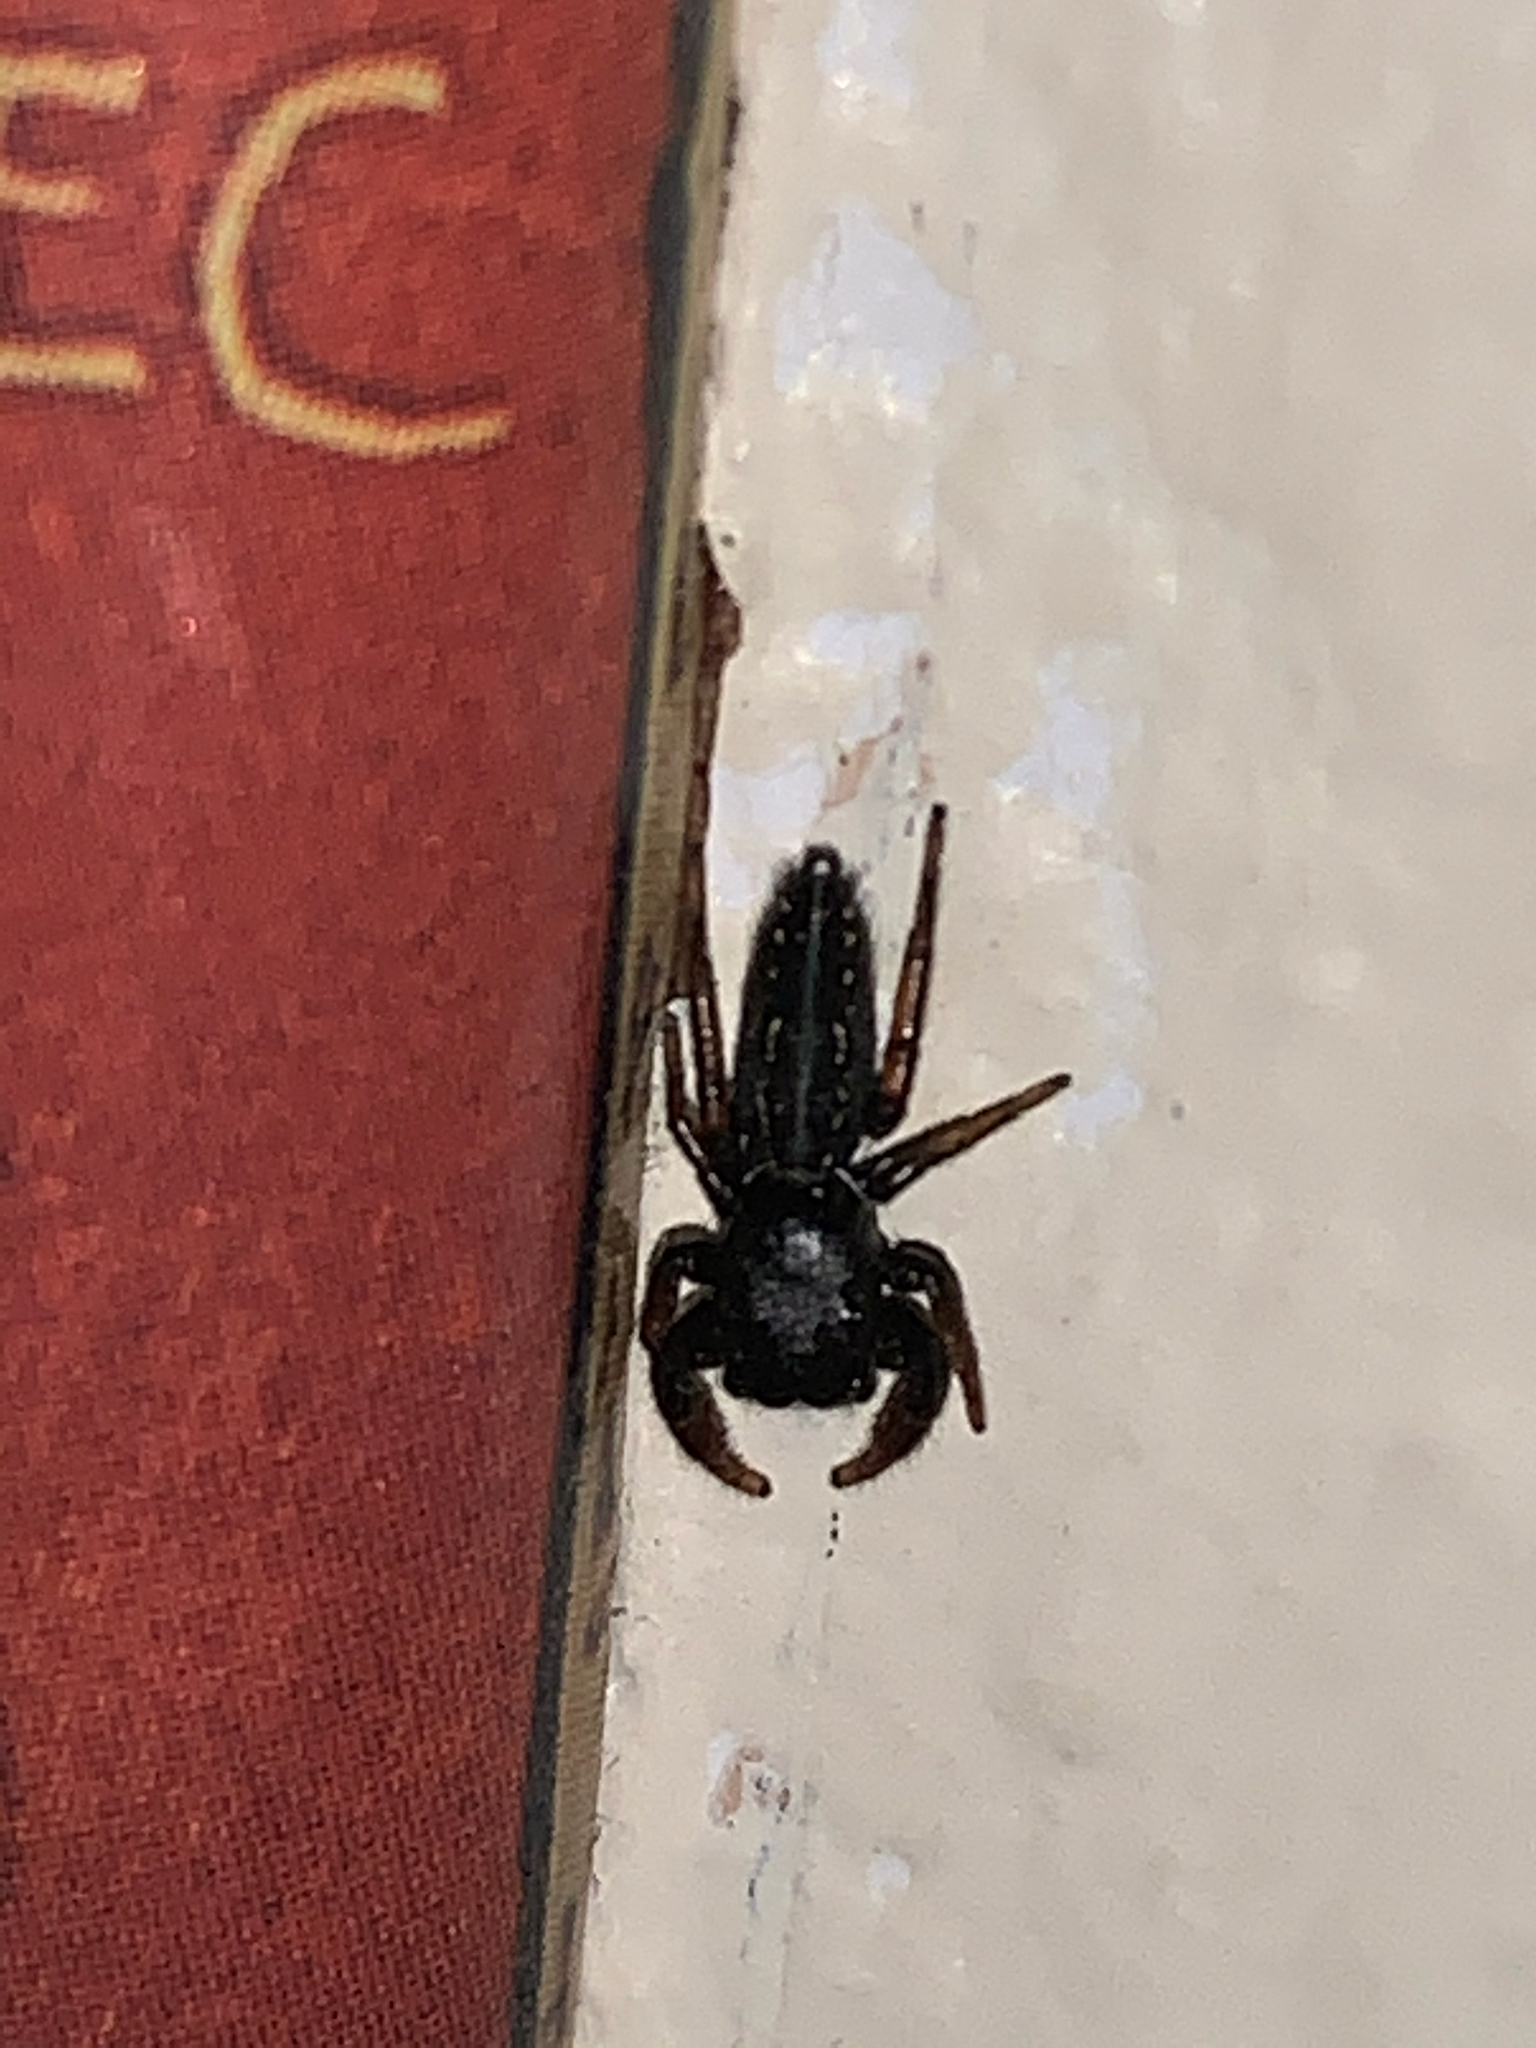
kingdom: Animalia
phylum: Arthropoda
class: Arachnida
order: Araneae
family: Salticidae
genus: Metacyrba
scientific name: Metacyrba taeniola
